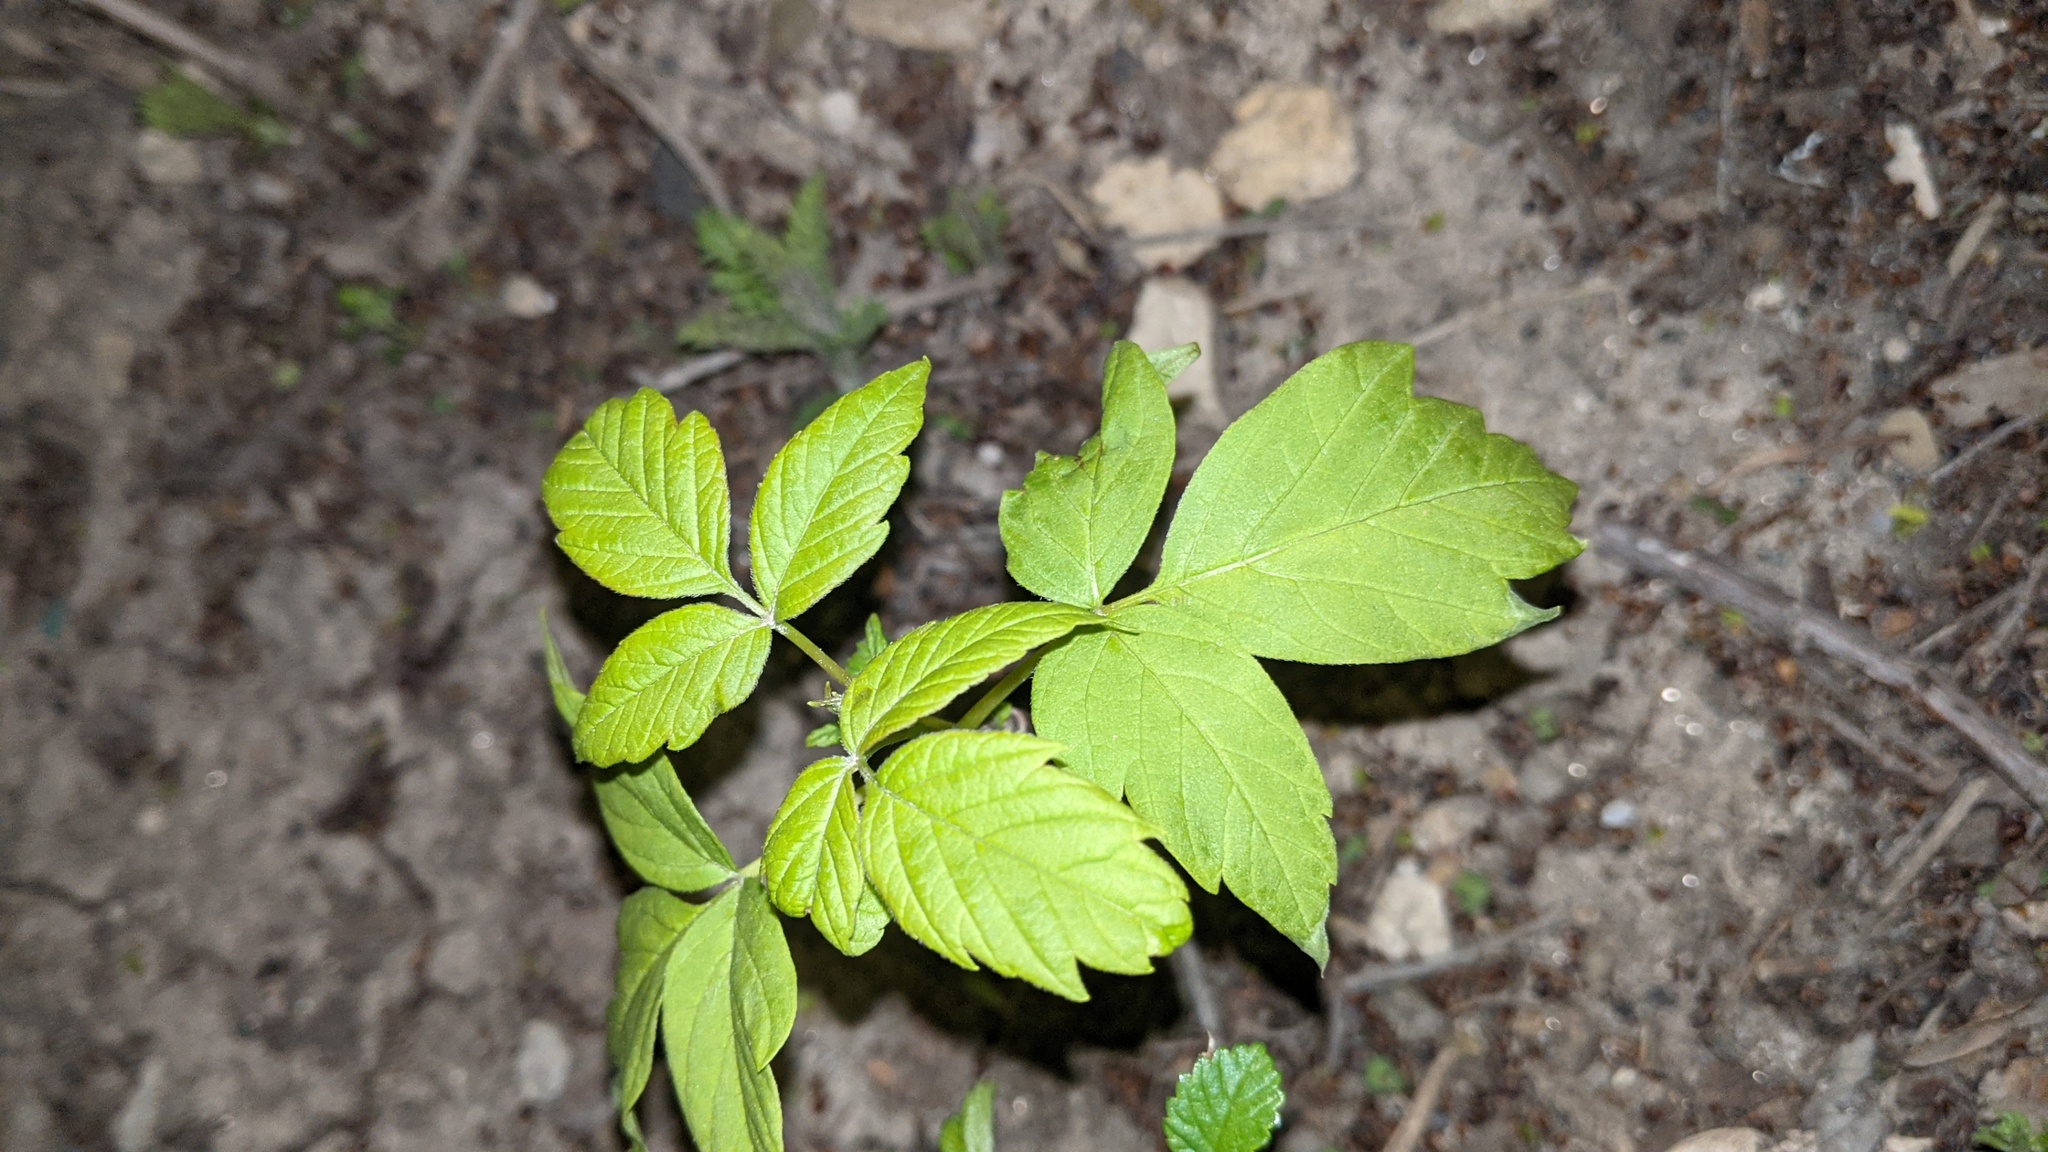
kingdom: Plantae
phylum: Tracheophyta
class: Magnoliopsida
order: Sapindales
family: Sapindaceae
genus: Acer
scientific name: Acer negundo
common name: Ashleaf maple
